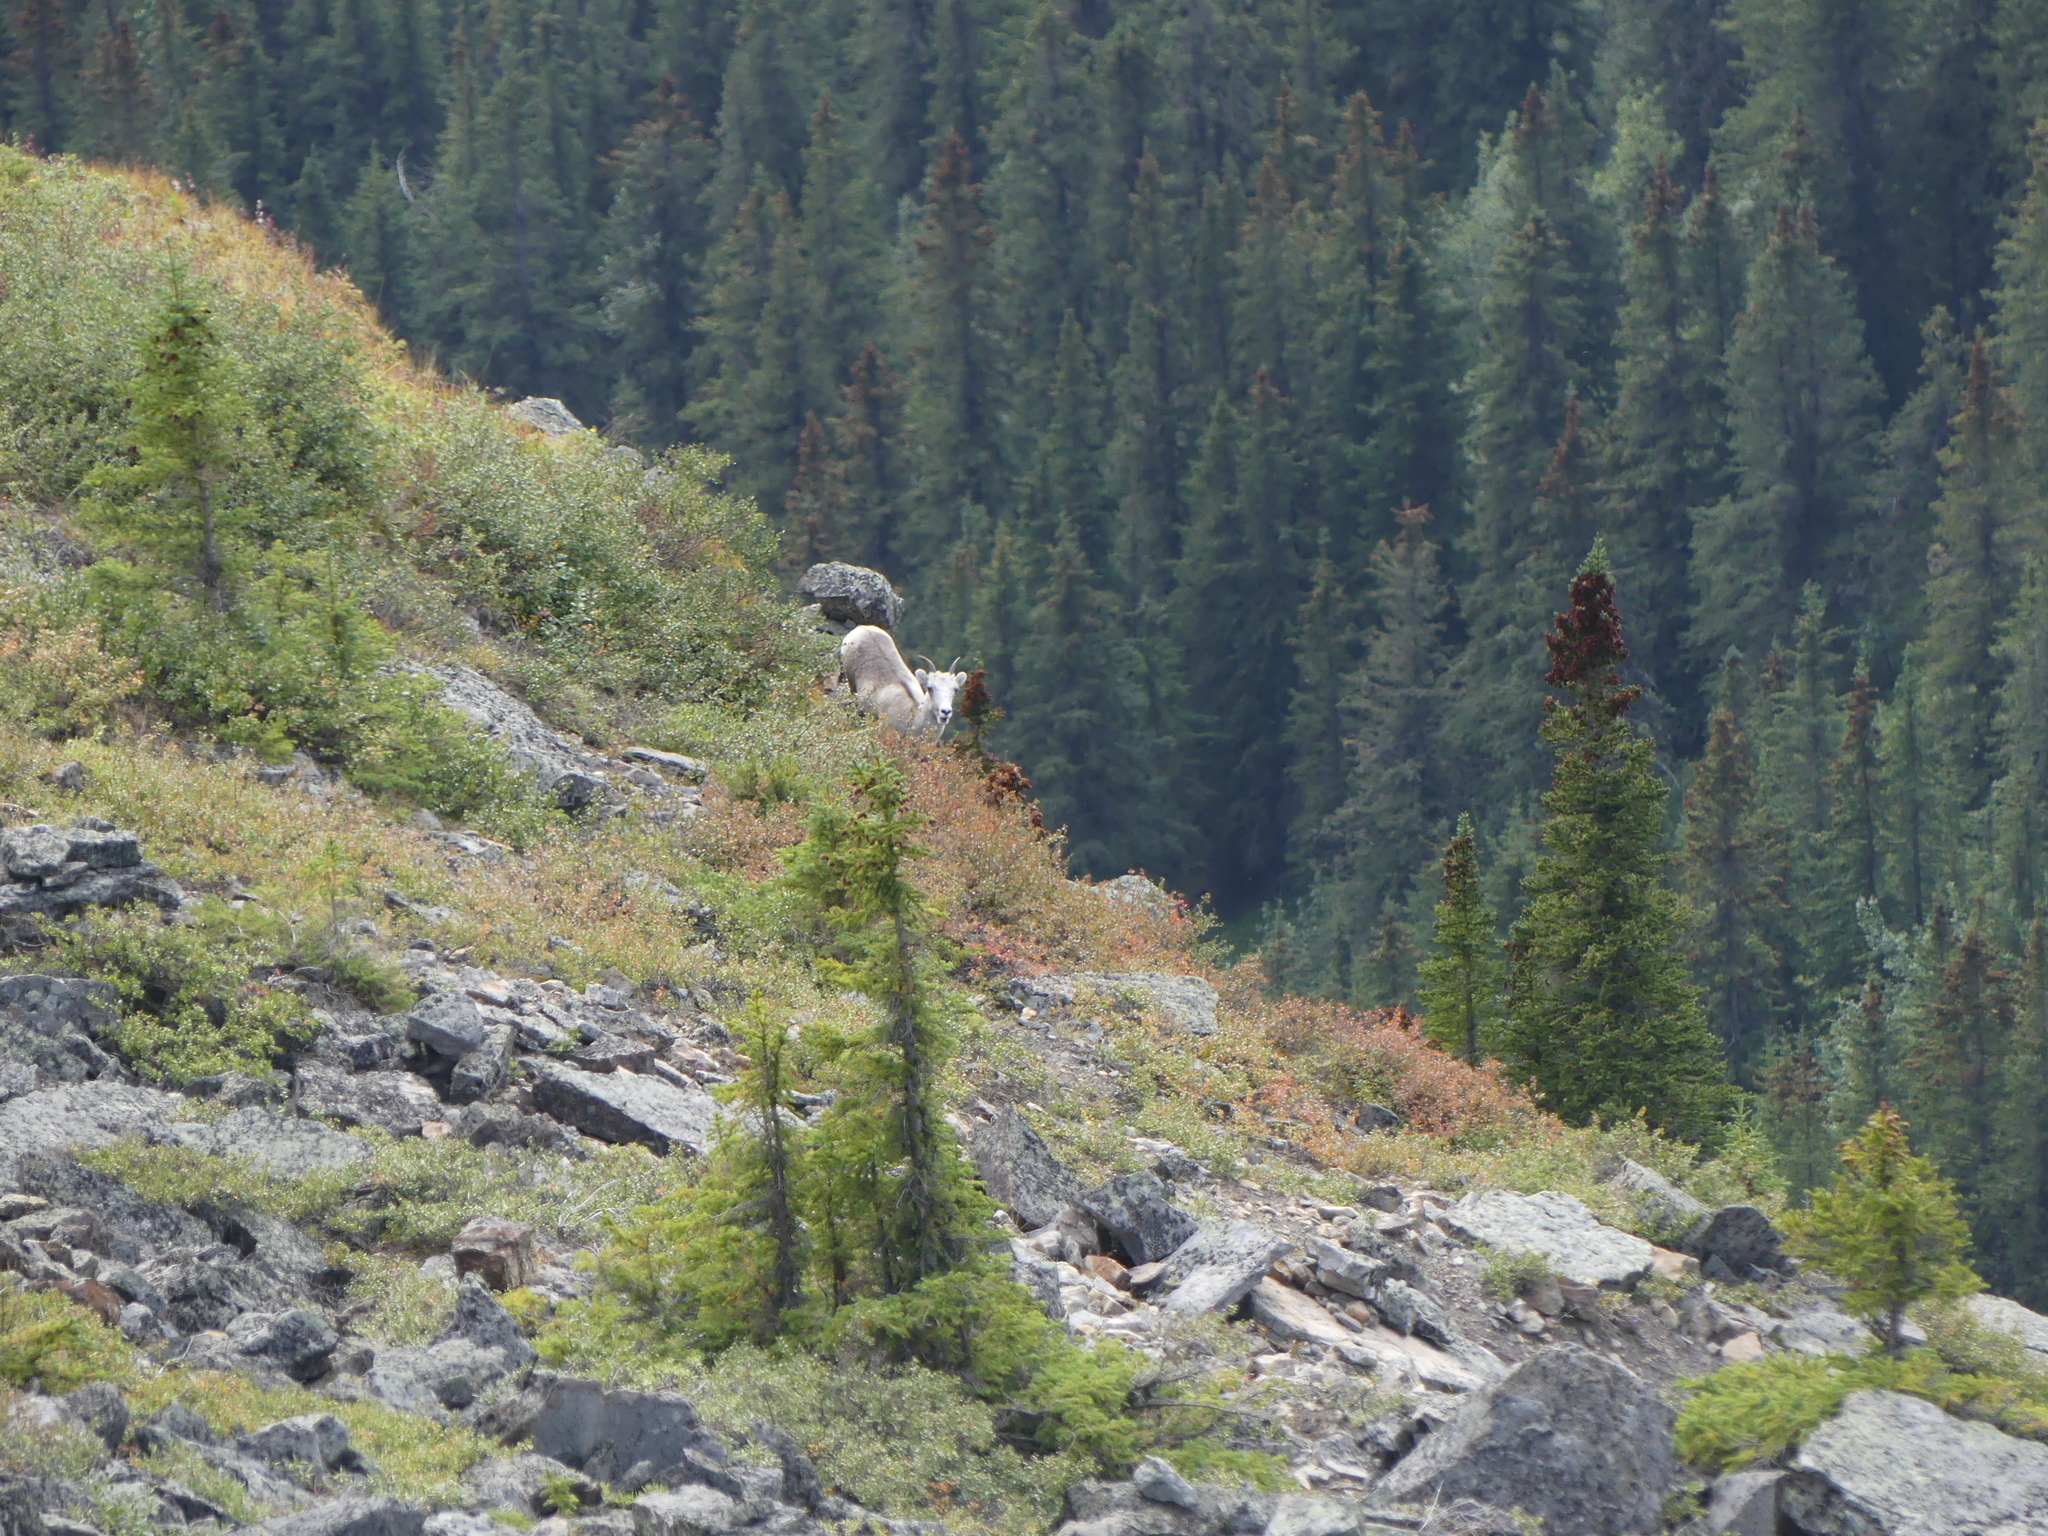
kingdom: Animalia
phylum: Chordata
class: Mammalia
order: Artiodactyla
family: Bovidae
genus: Ovis
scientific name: Ovis dalli
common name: Dall's sheep
